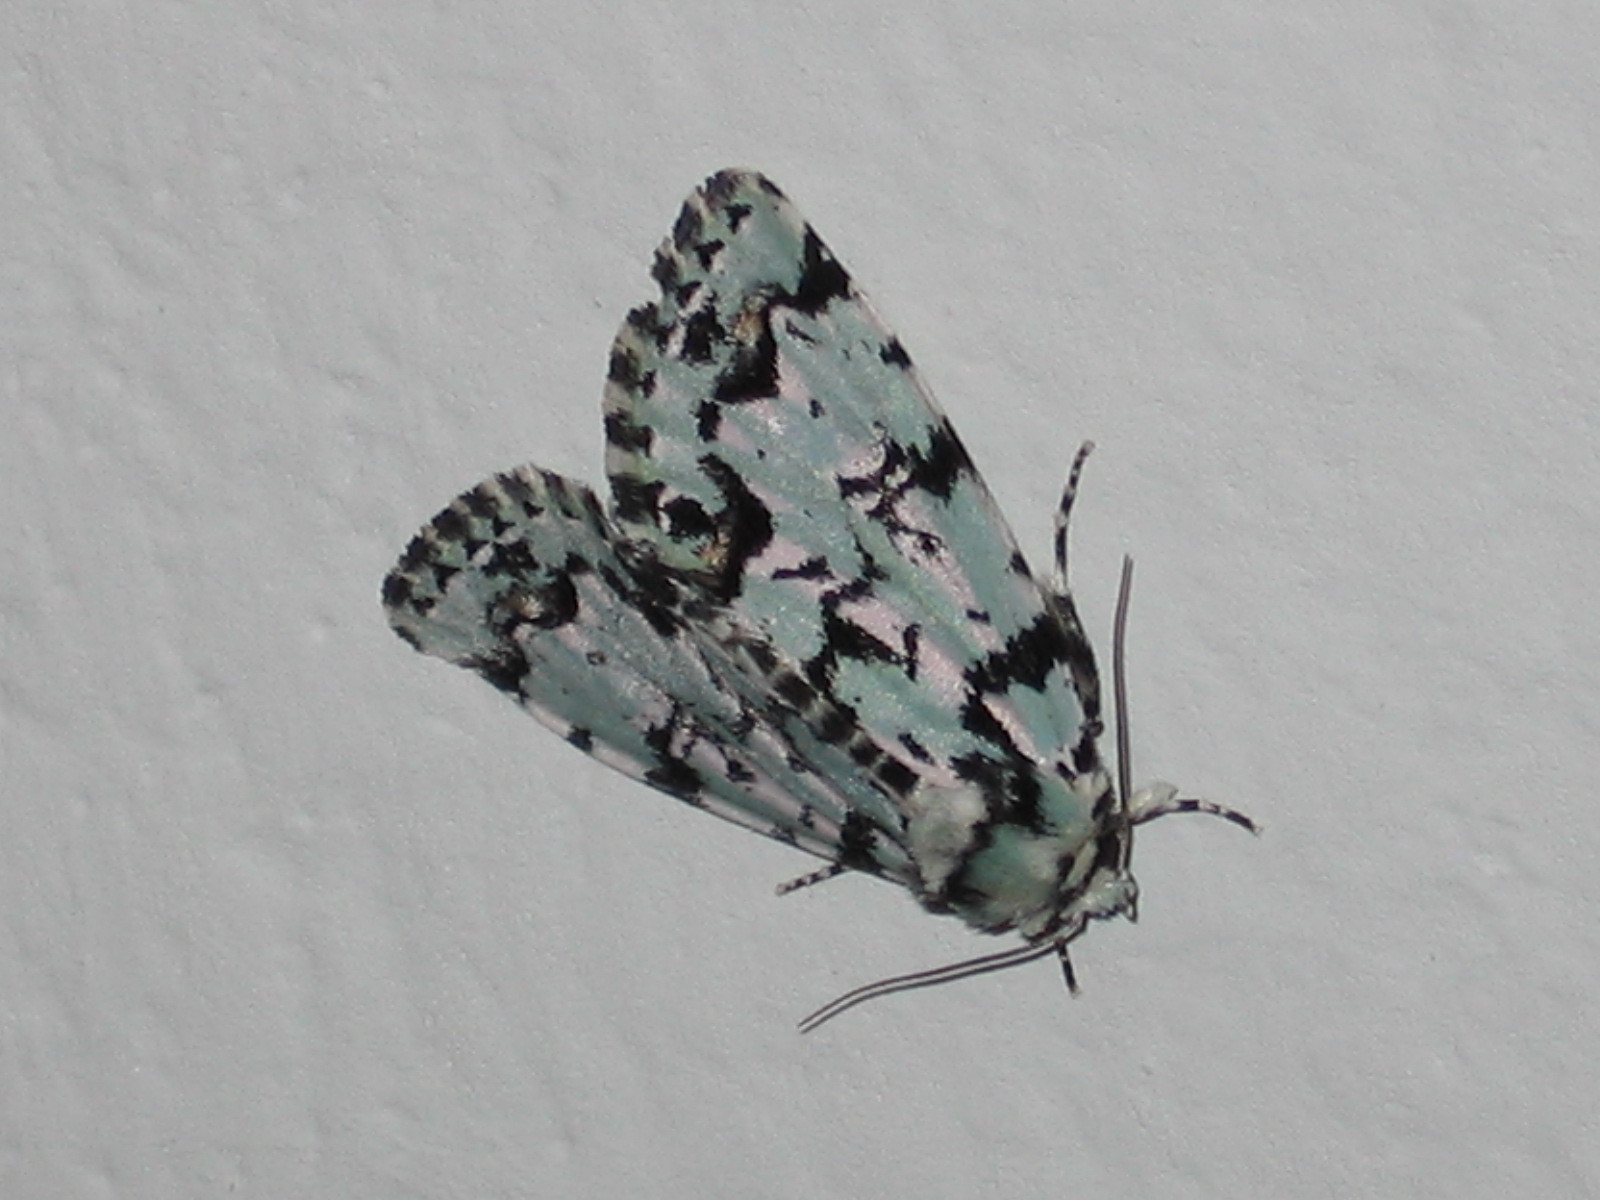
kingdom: Animalia
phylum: Arthropoda
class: Insecta
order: Lepidoptera
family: Noctuidae
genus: Moma
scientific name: Moma alpium
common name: Scarce merveille du jour
